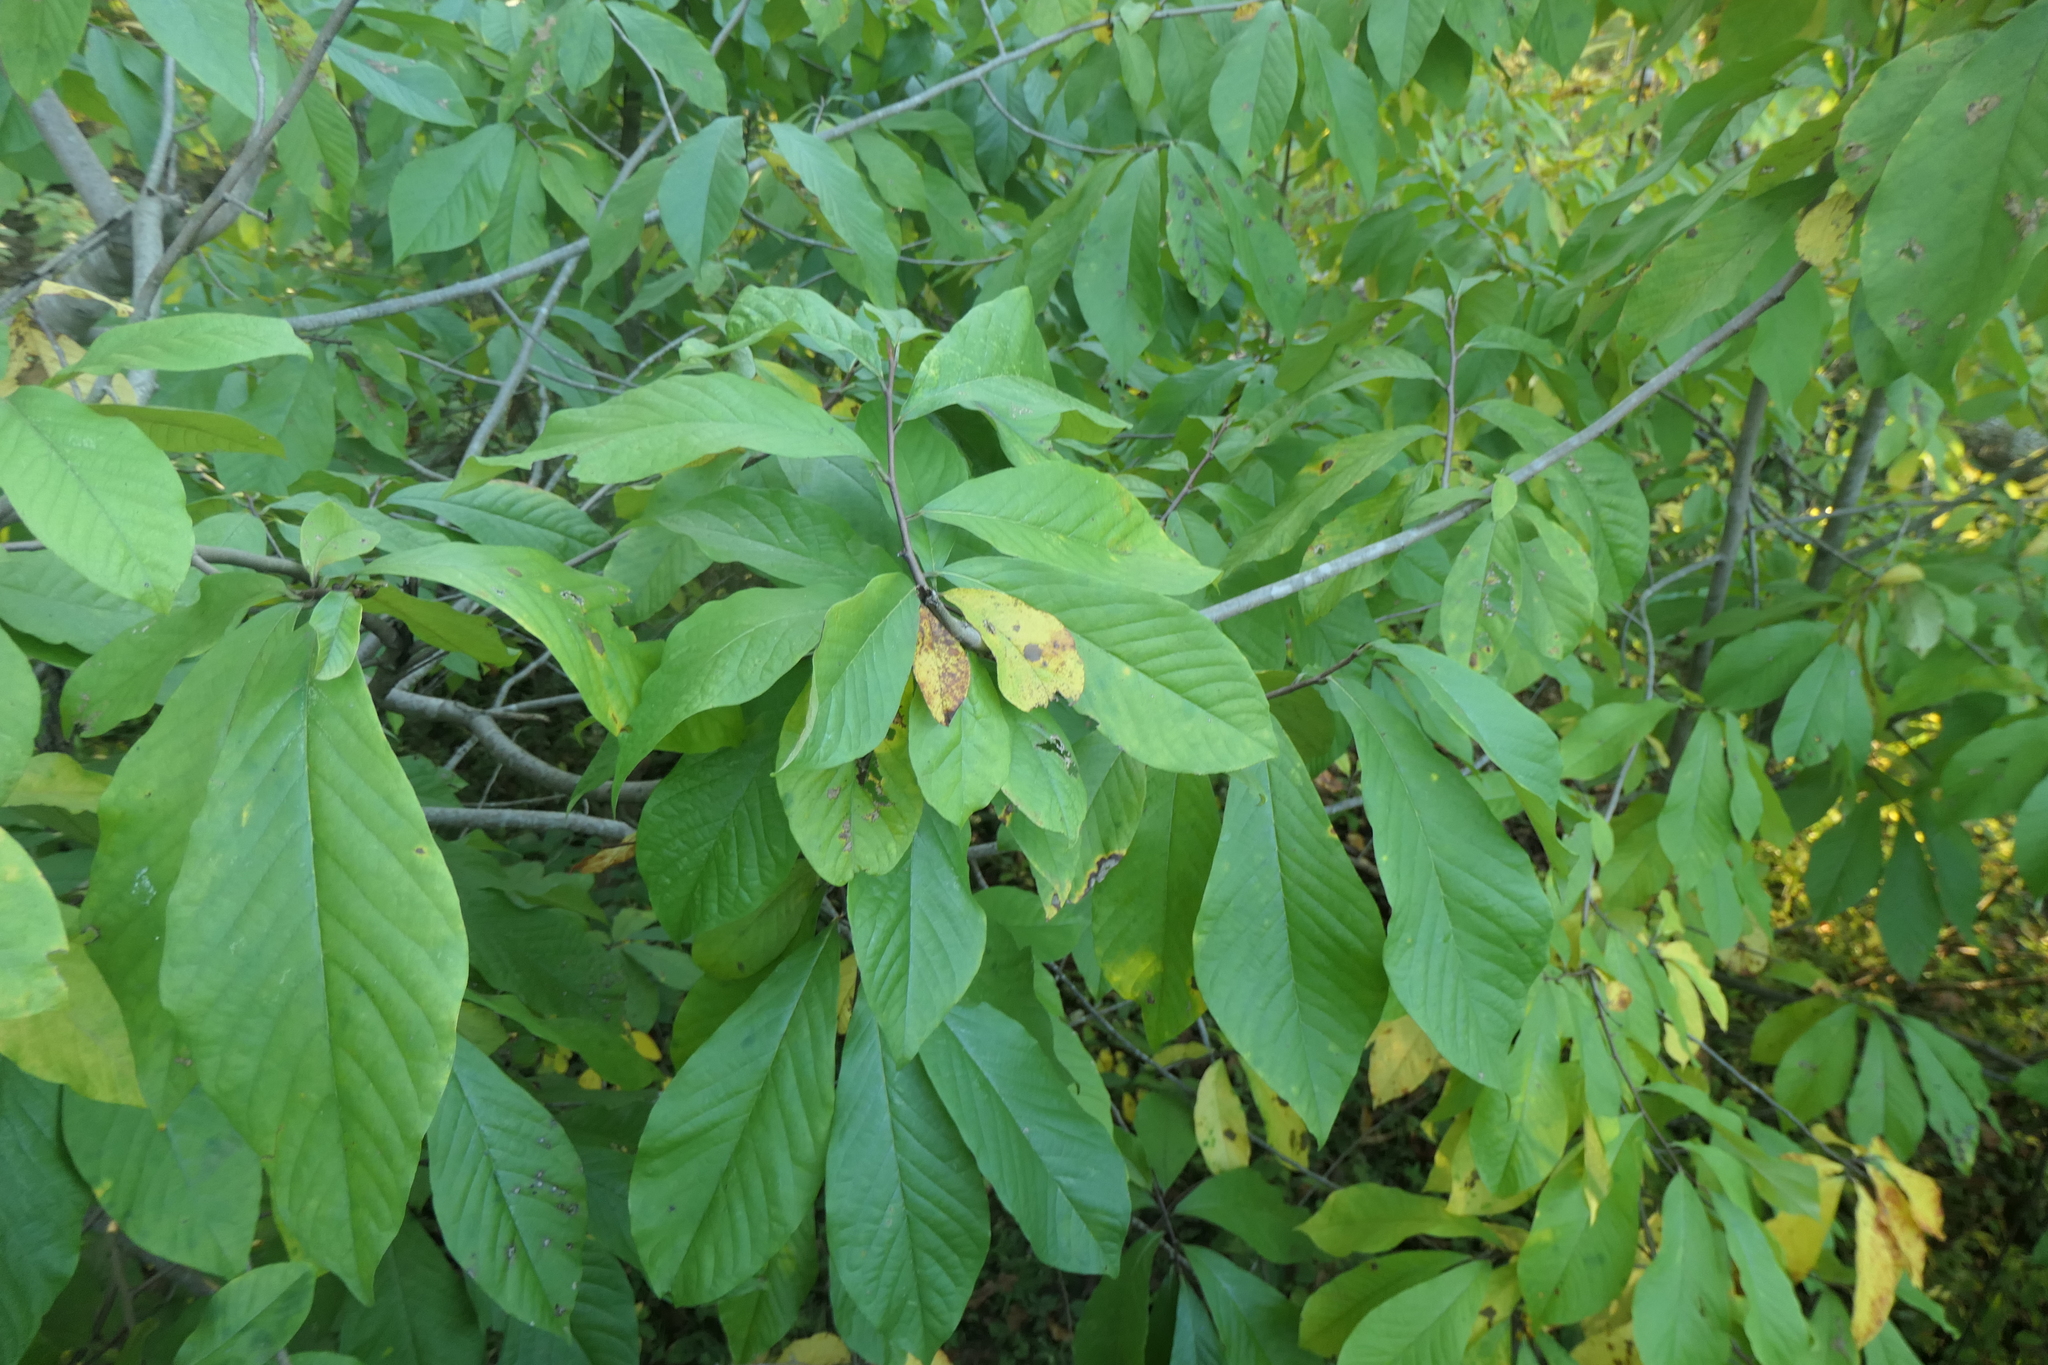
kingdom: Plantae
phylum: Tracheophyta
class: Magnoliopsida
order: Magnoliales
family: Annonaceae
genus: Asimina
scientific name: Asimina triloba
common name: Dog-banana
